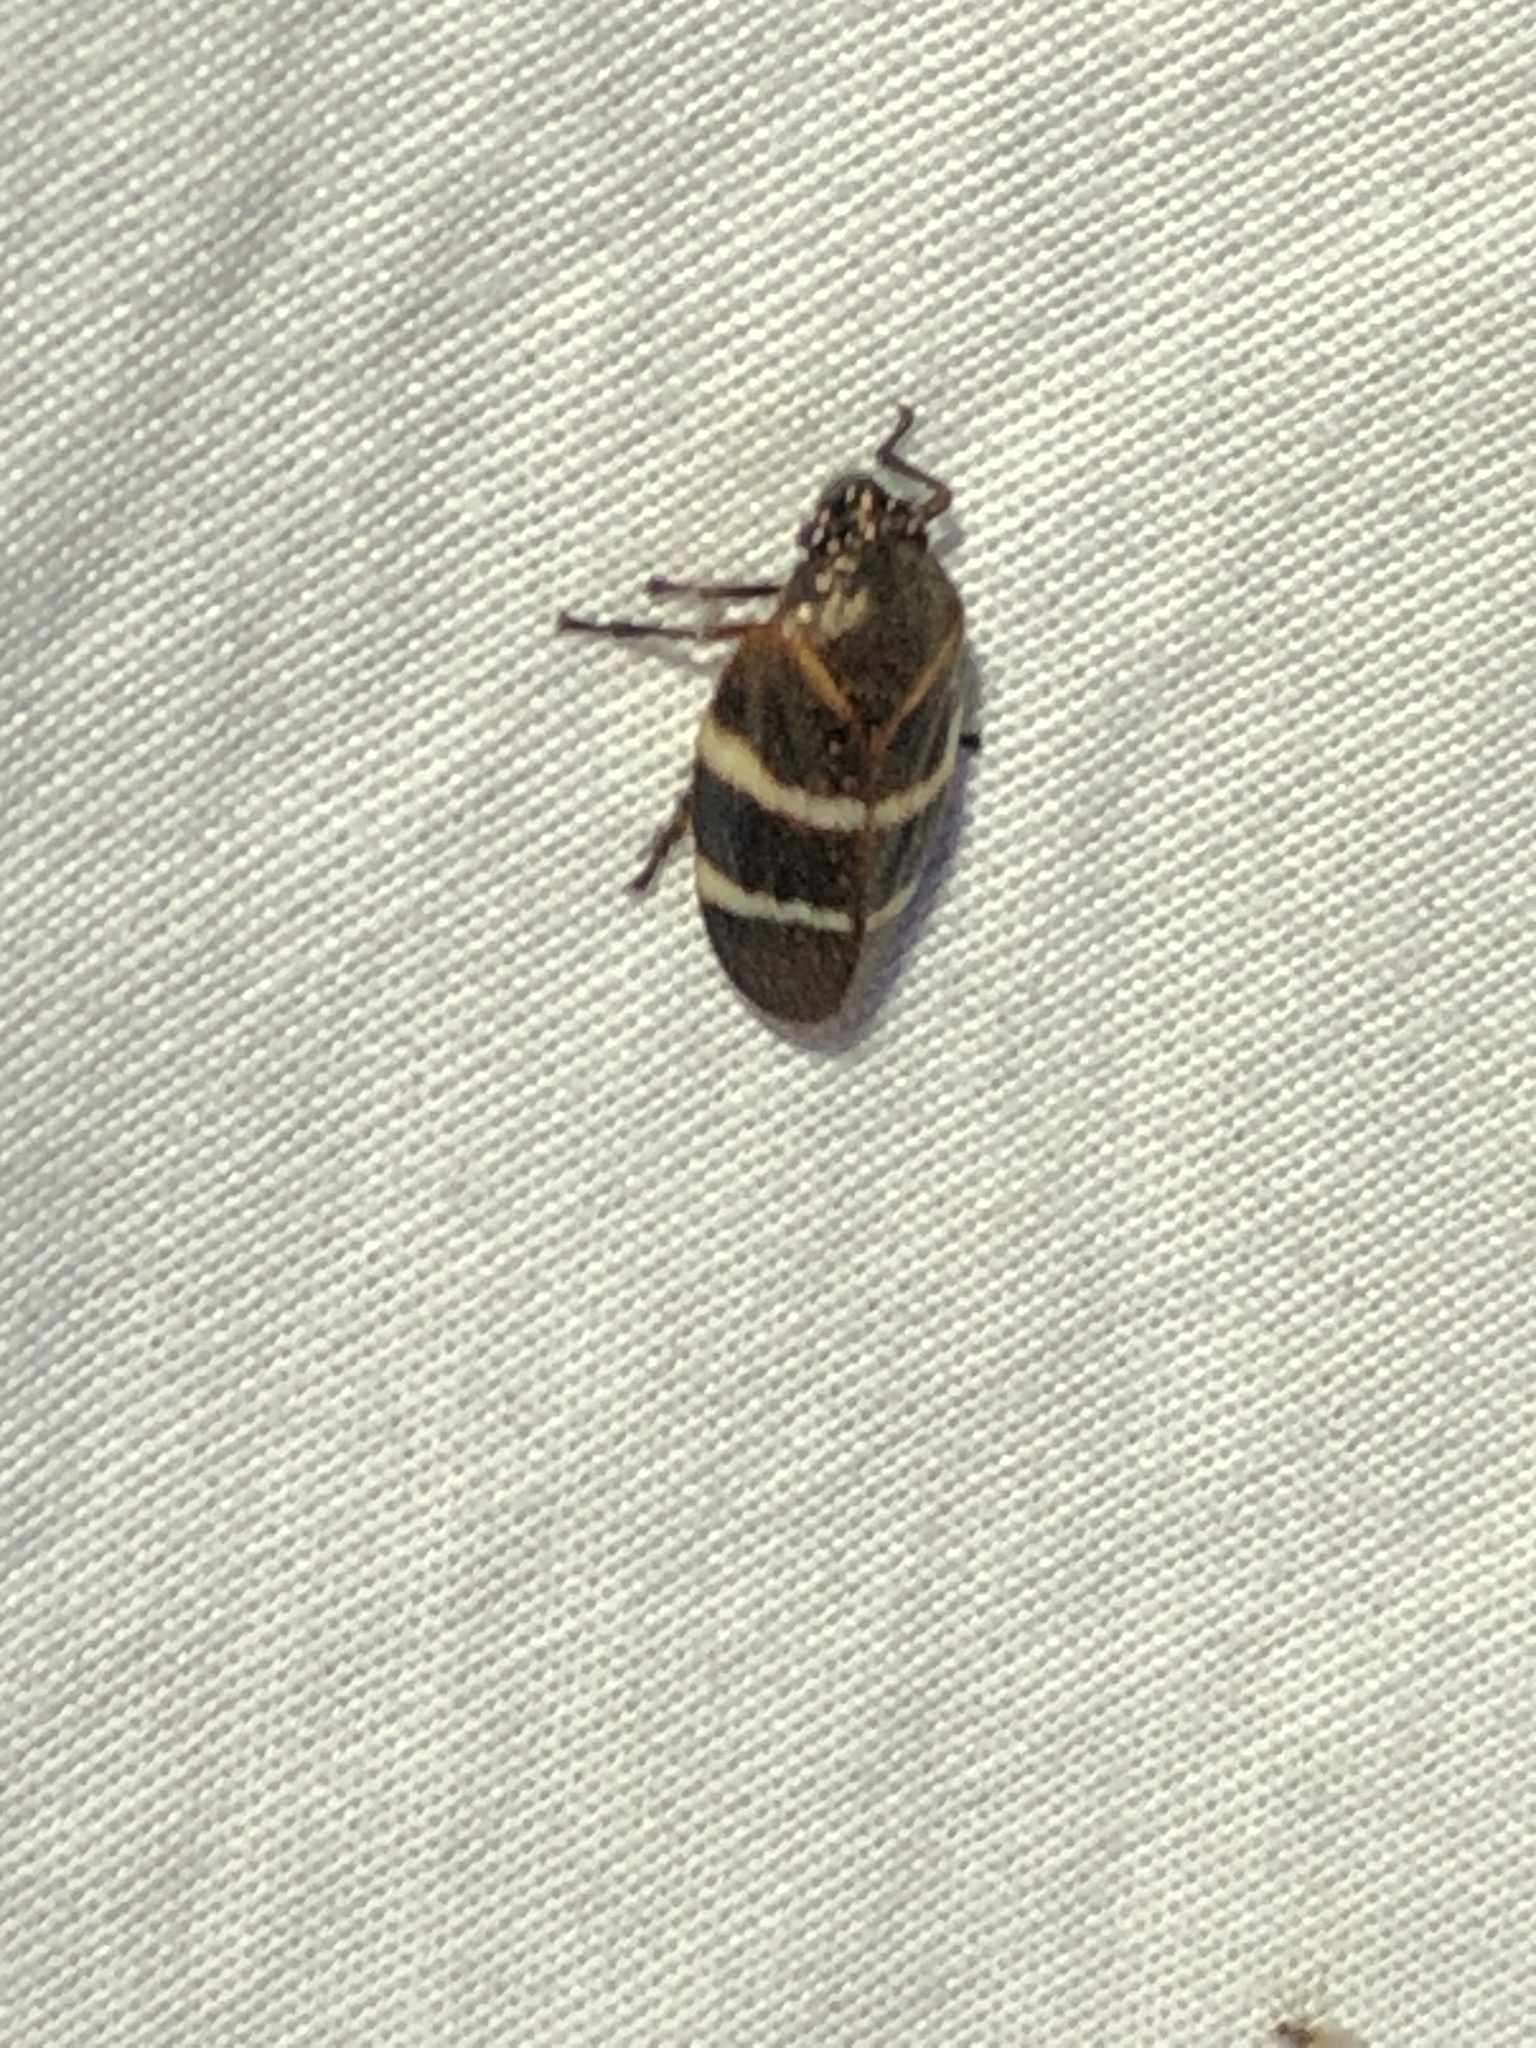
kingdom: Animalia
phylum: Arthropoda
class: Insecta
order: Hemiptera
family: Cercopidae
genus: Aeneolamia
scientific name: Aeneolamia albofasciata
